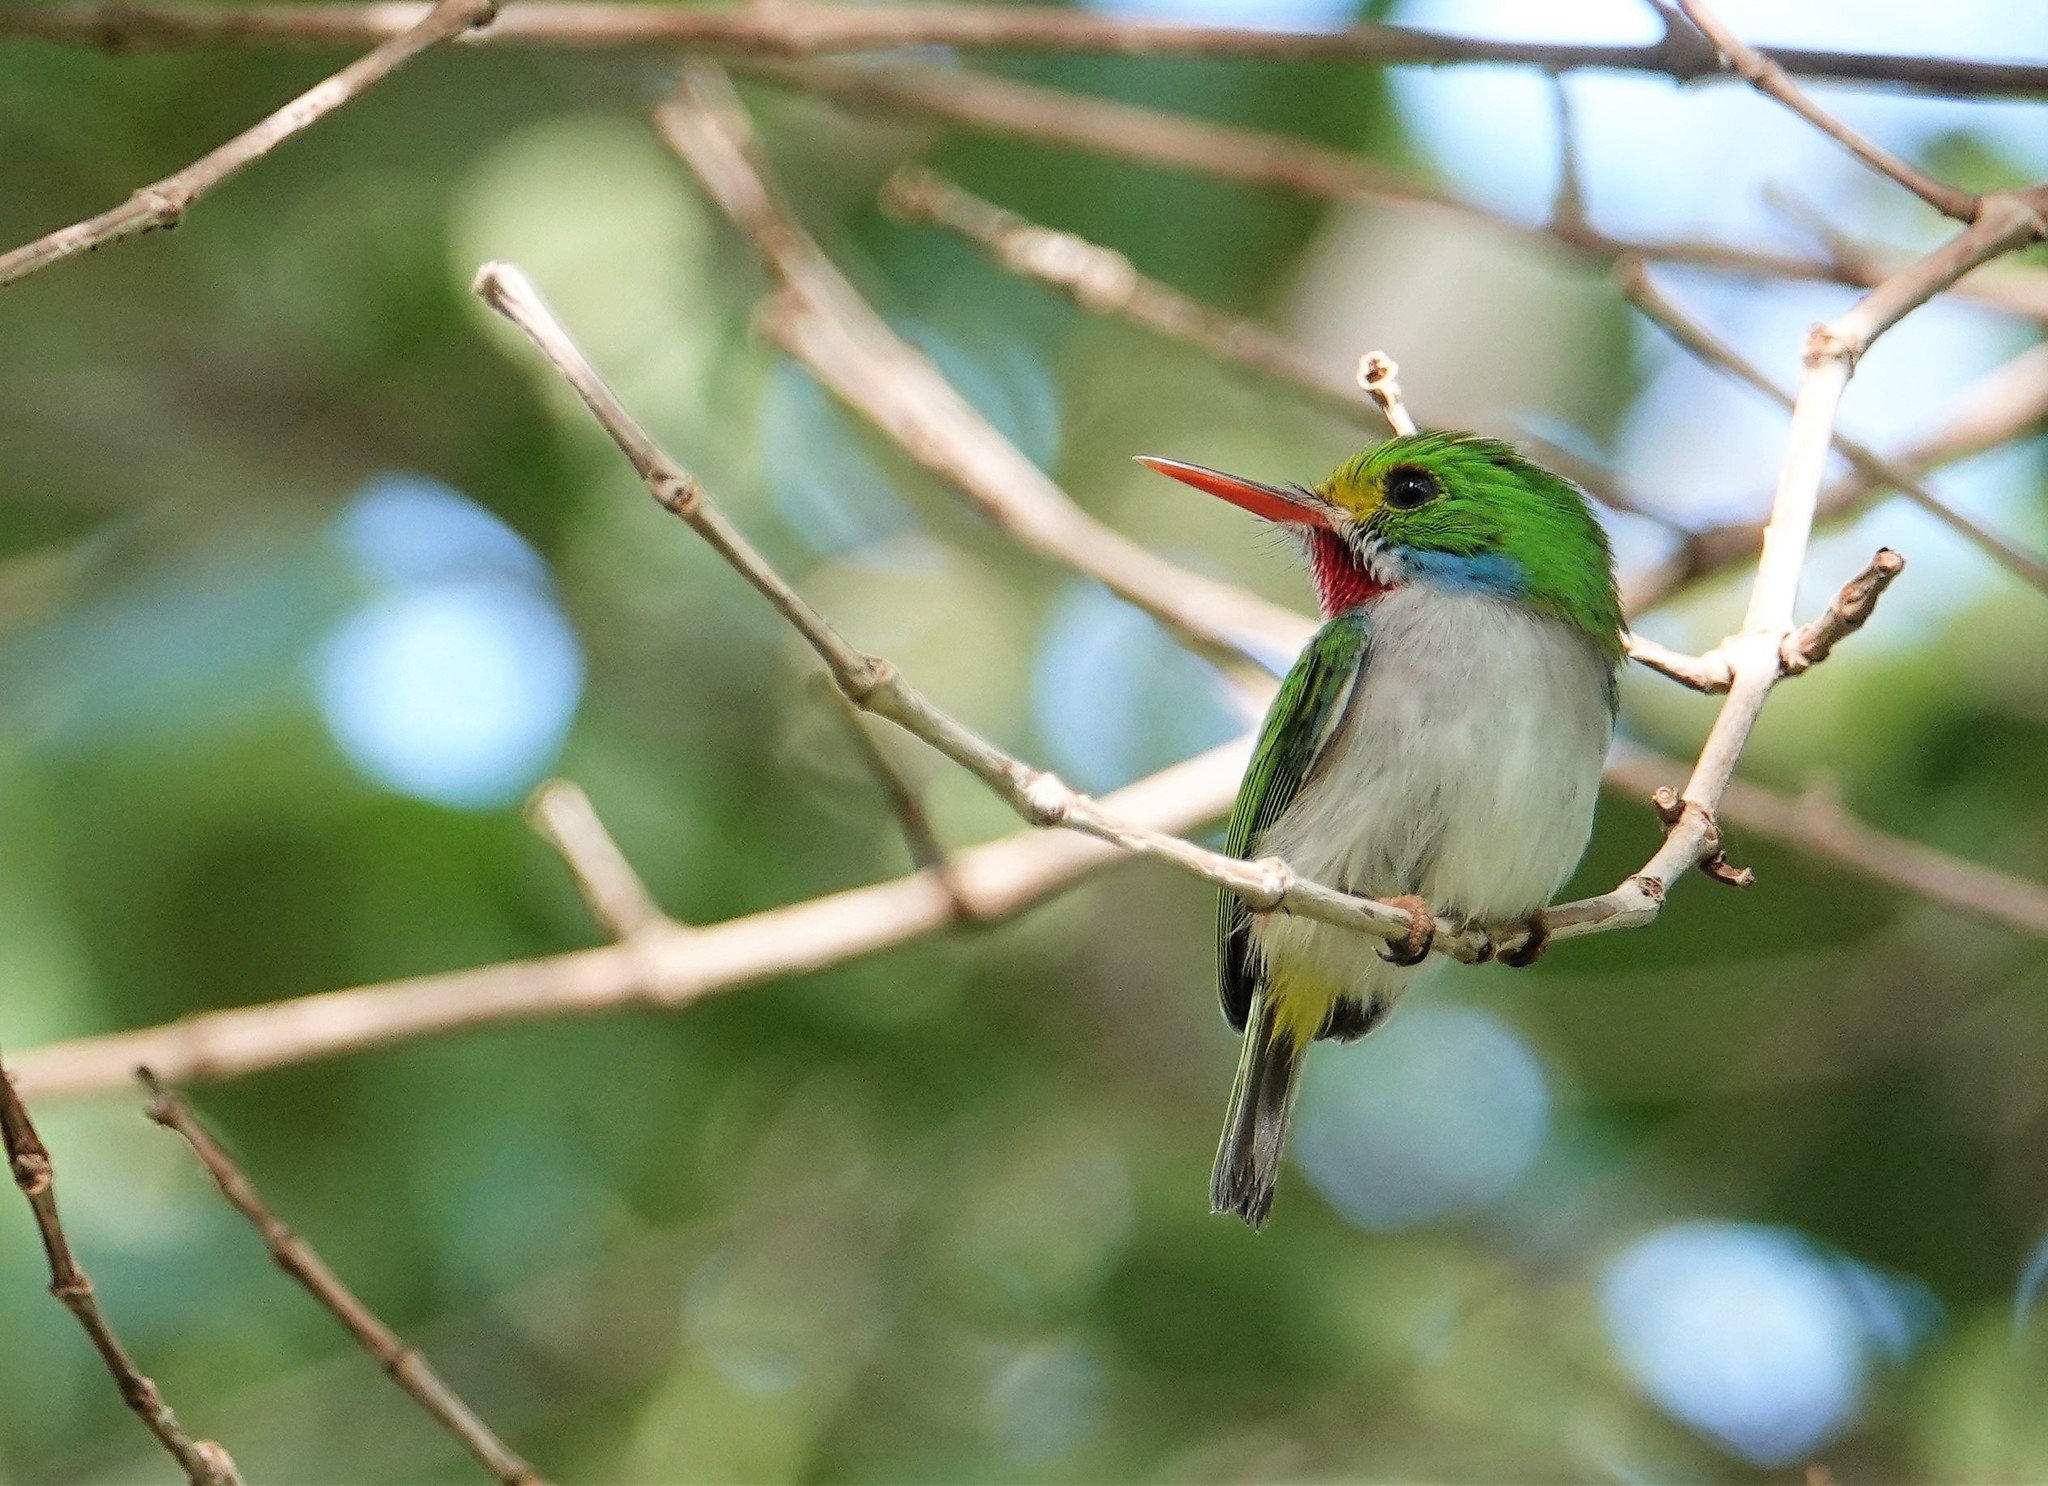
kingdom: Animalia
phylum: Chordata
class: Aves
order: Coraciiformes
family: Todidae
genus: Todus
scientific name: Todus multicolor
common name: Cuban tody
